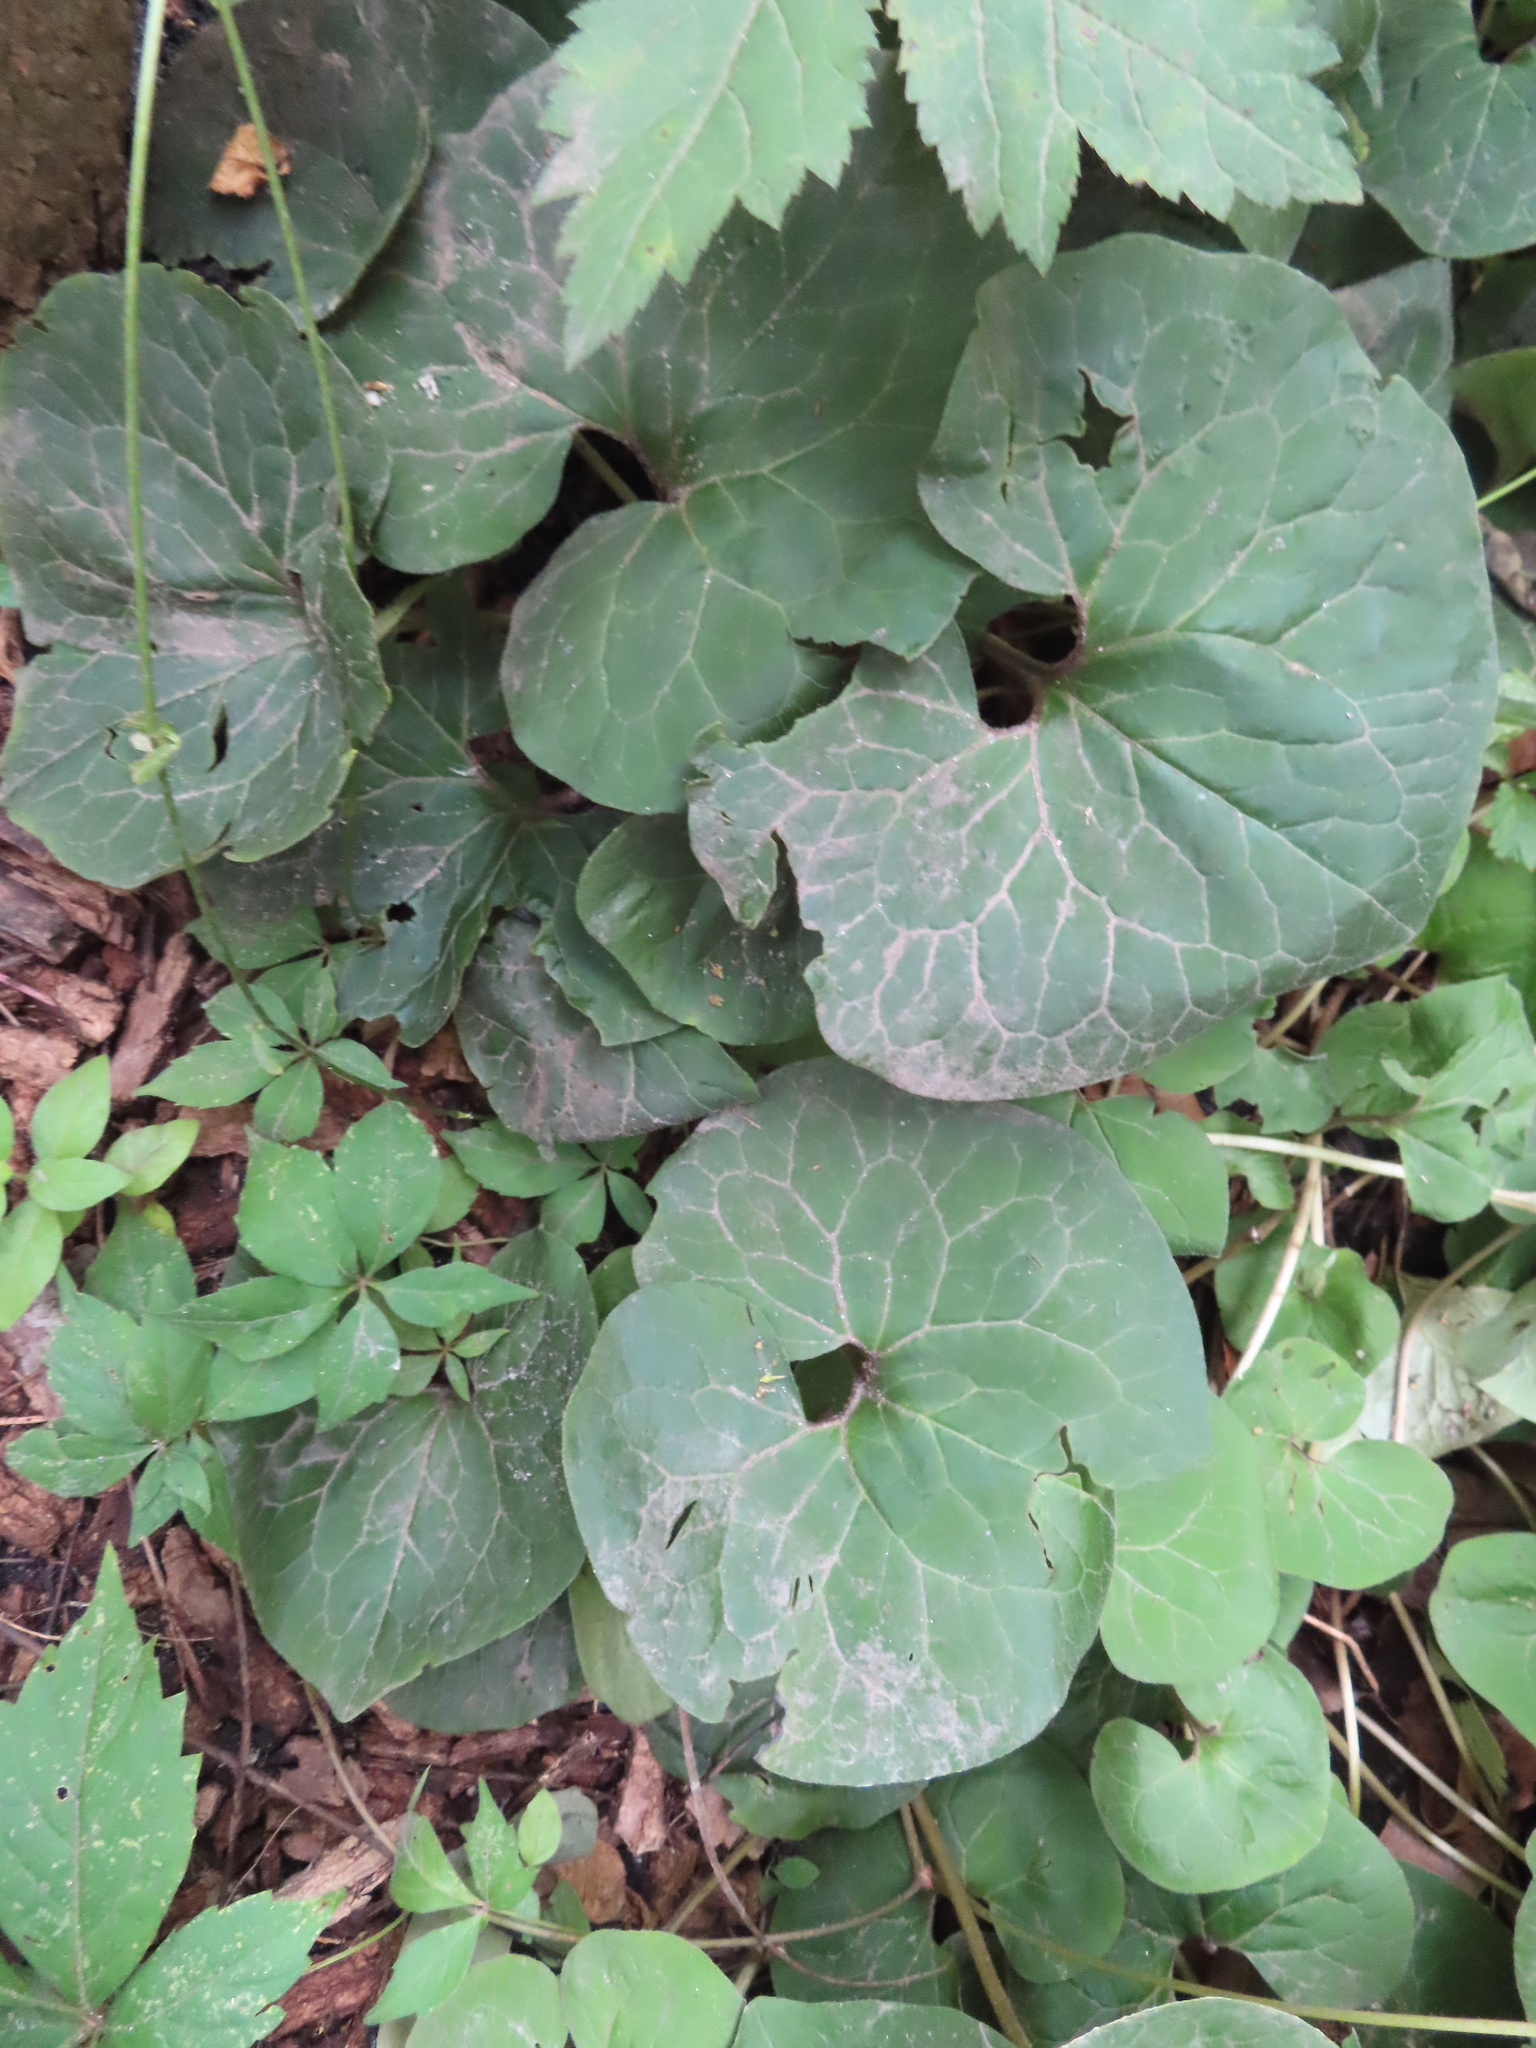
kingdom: Plantae
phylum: Tracheophyta
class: Magnoliopsida
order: Piperales
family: Aristolochiaceae
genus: Asarum
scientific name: Asarum canadense
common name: Wild ginger
